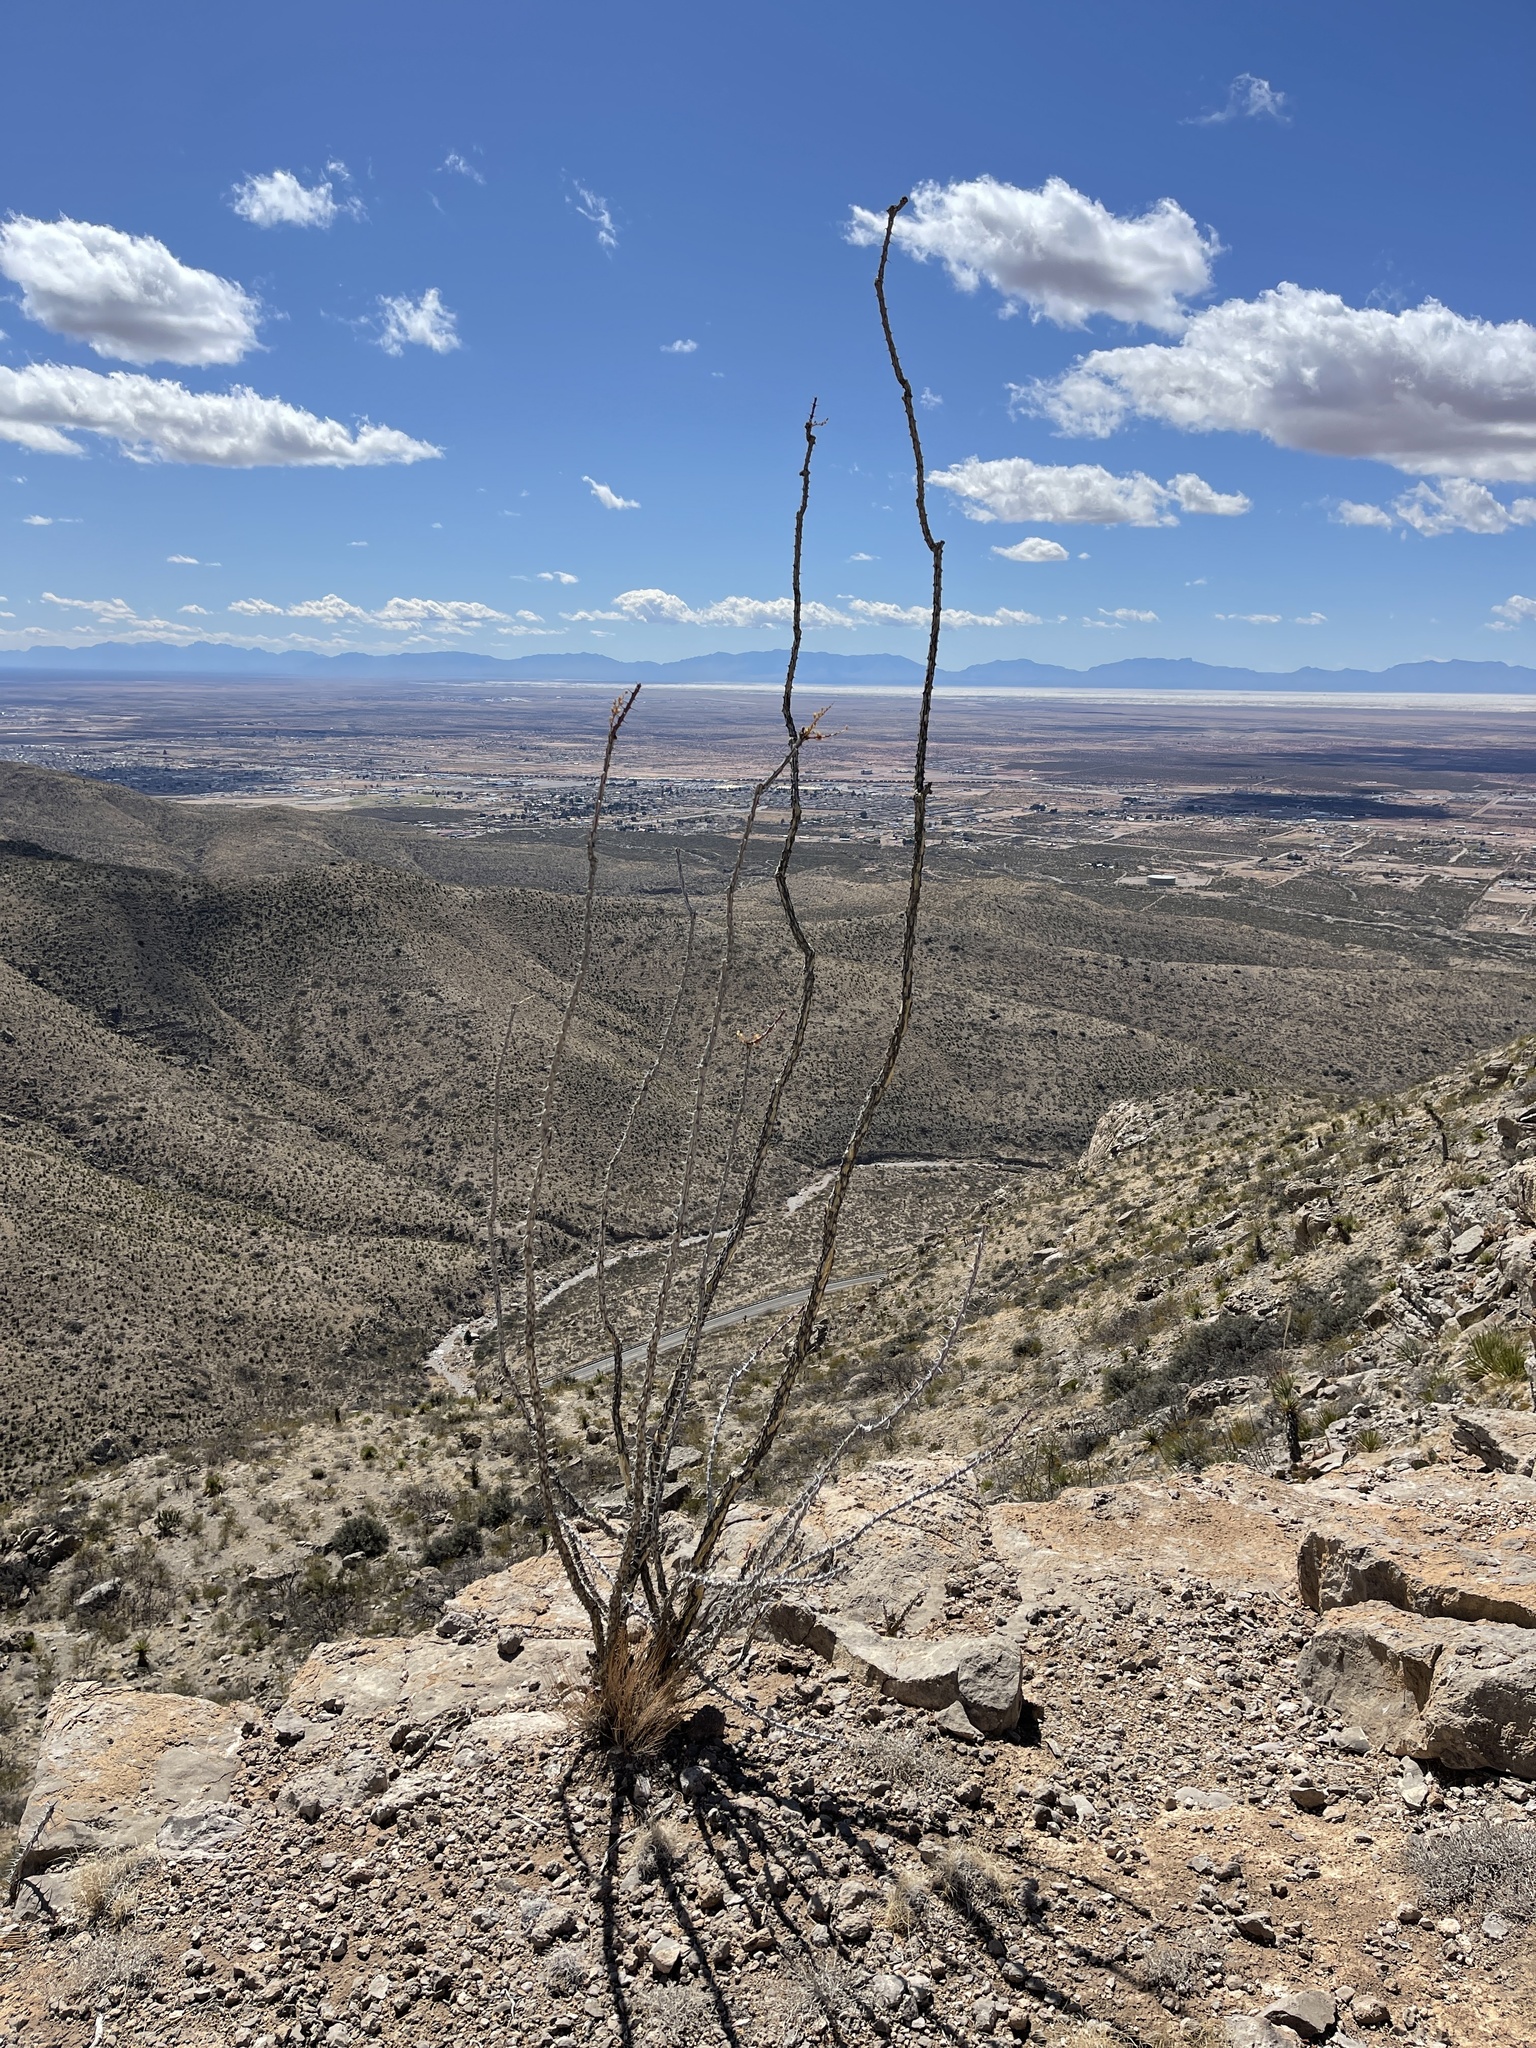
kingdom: Plantae
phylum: Tracheophyta
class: Magnoliopsida
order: Ericales
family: Fouquieriaceae
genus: Fouquieria
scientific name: Fouquieria splendens
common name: Vine-cactus
